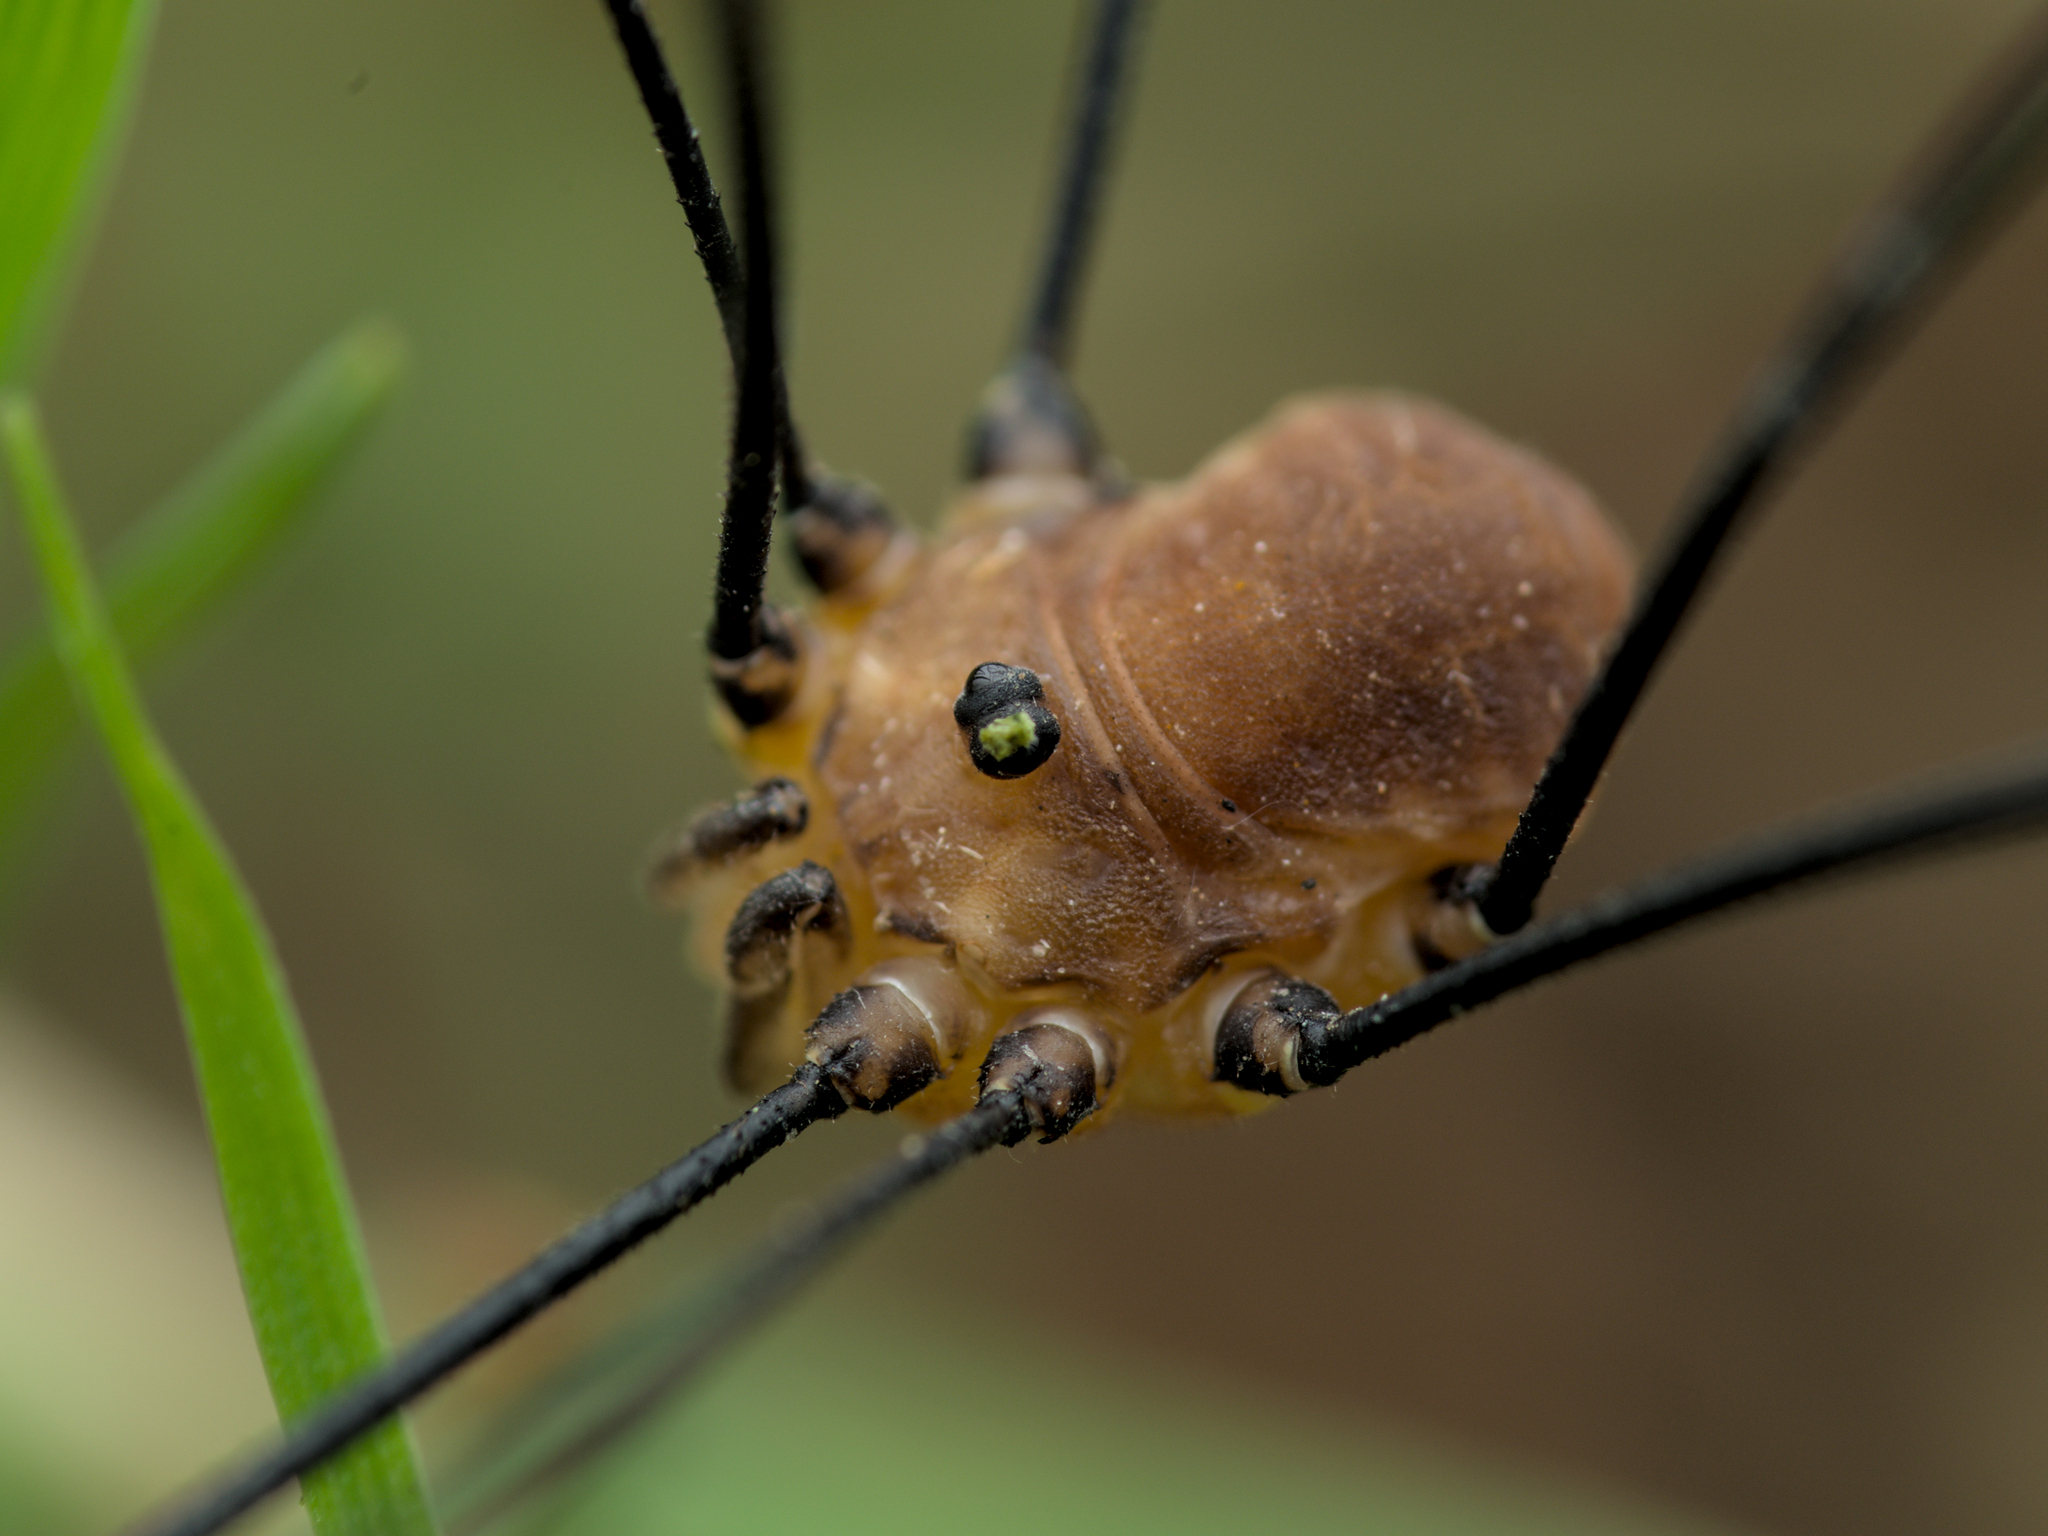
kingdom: Animalia
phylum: Arthropoda
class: Arachnida
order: Opiliones
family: Sclerosomatidae
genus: Leiobunum
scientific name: Leiobunum rotundum
